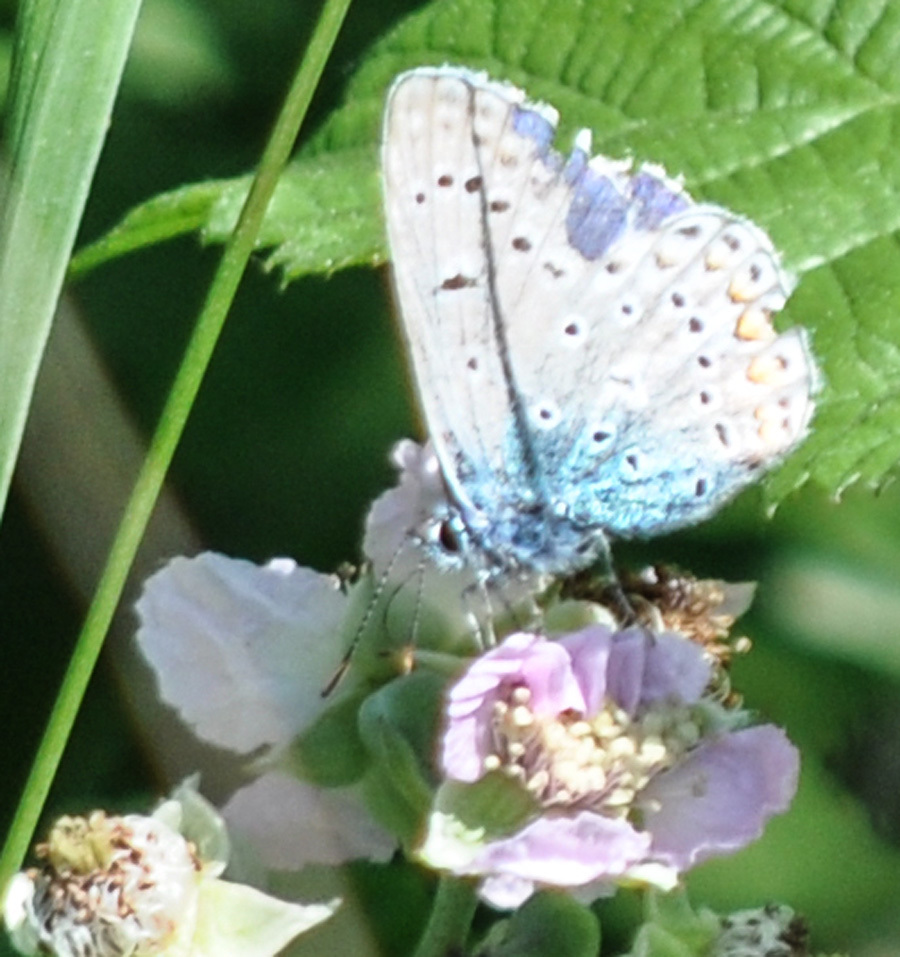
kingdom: Animalia
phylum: Arthropoda
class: Insecta
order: Lepidoptera
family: Lycaenidae
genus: Polyommatus
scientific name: Polyommatus icarus
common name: Common blue
